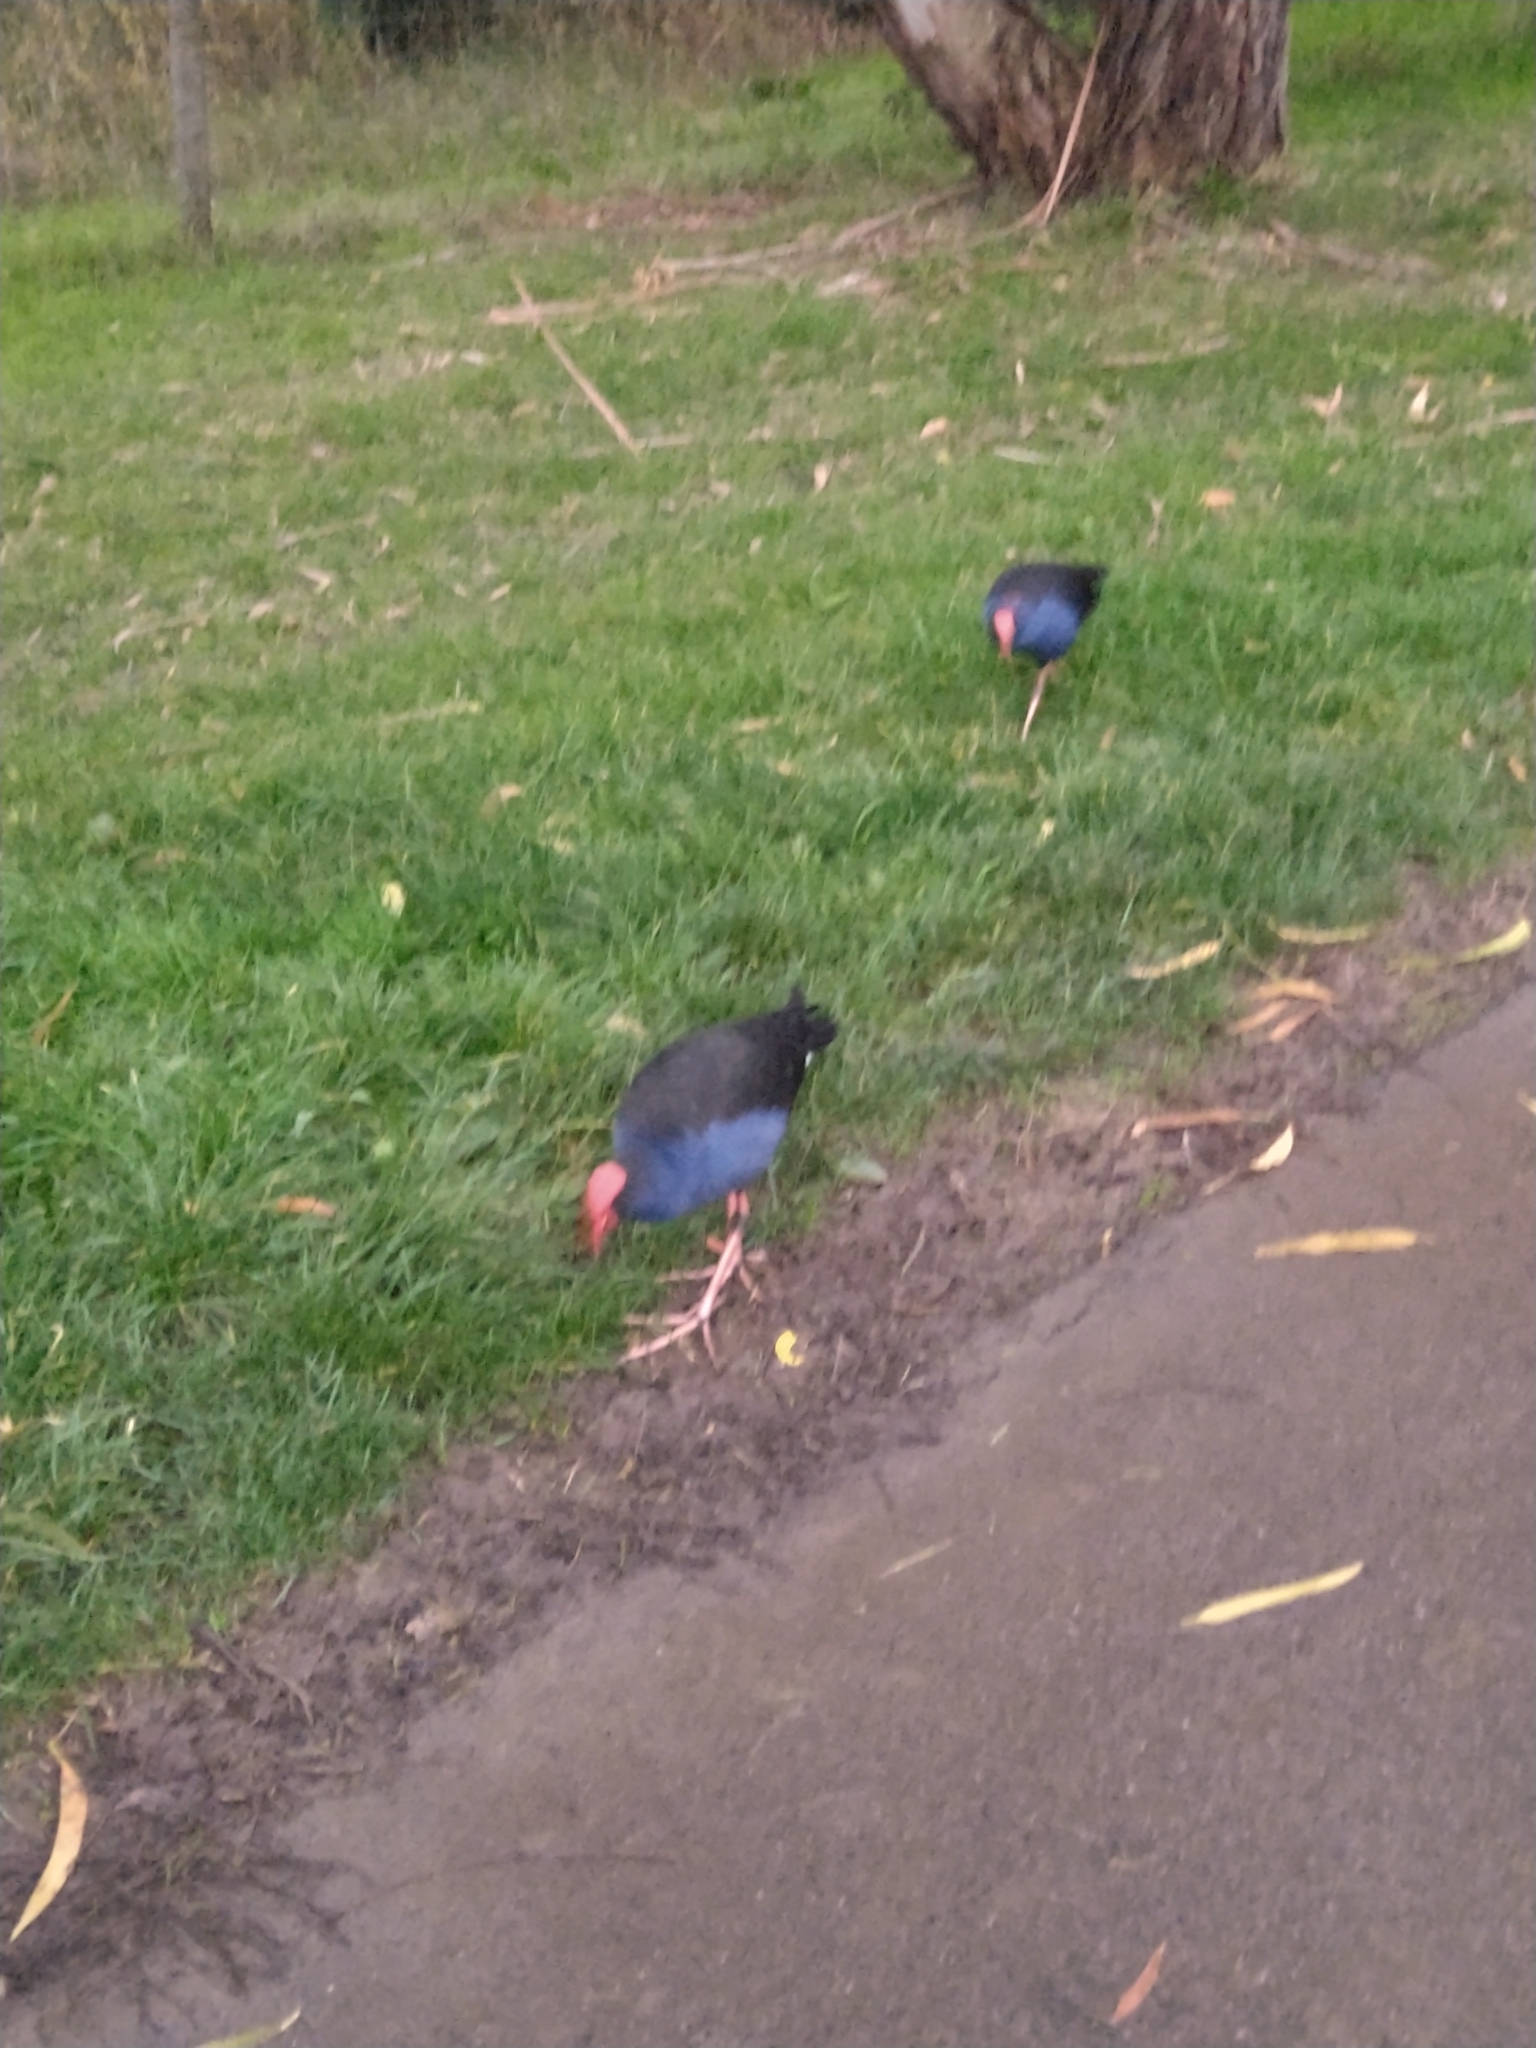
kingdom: Animalia
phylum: Chordata
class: Aves
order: Gruiformes
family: Rallidae
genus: Porphyrio
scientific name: Porphyrio melanotus
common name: Australasian swamphen
